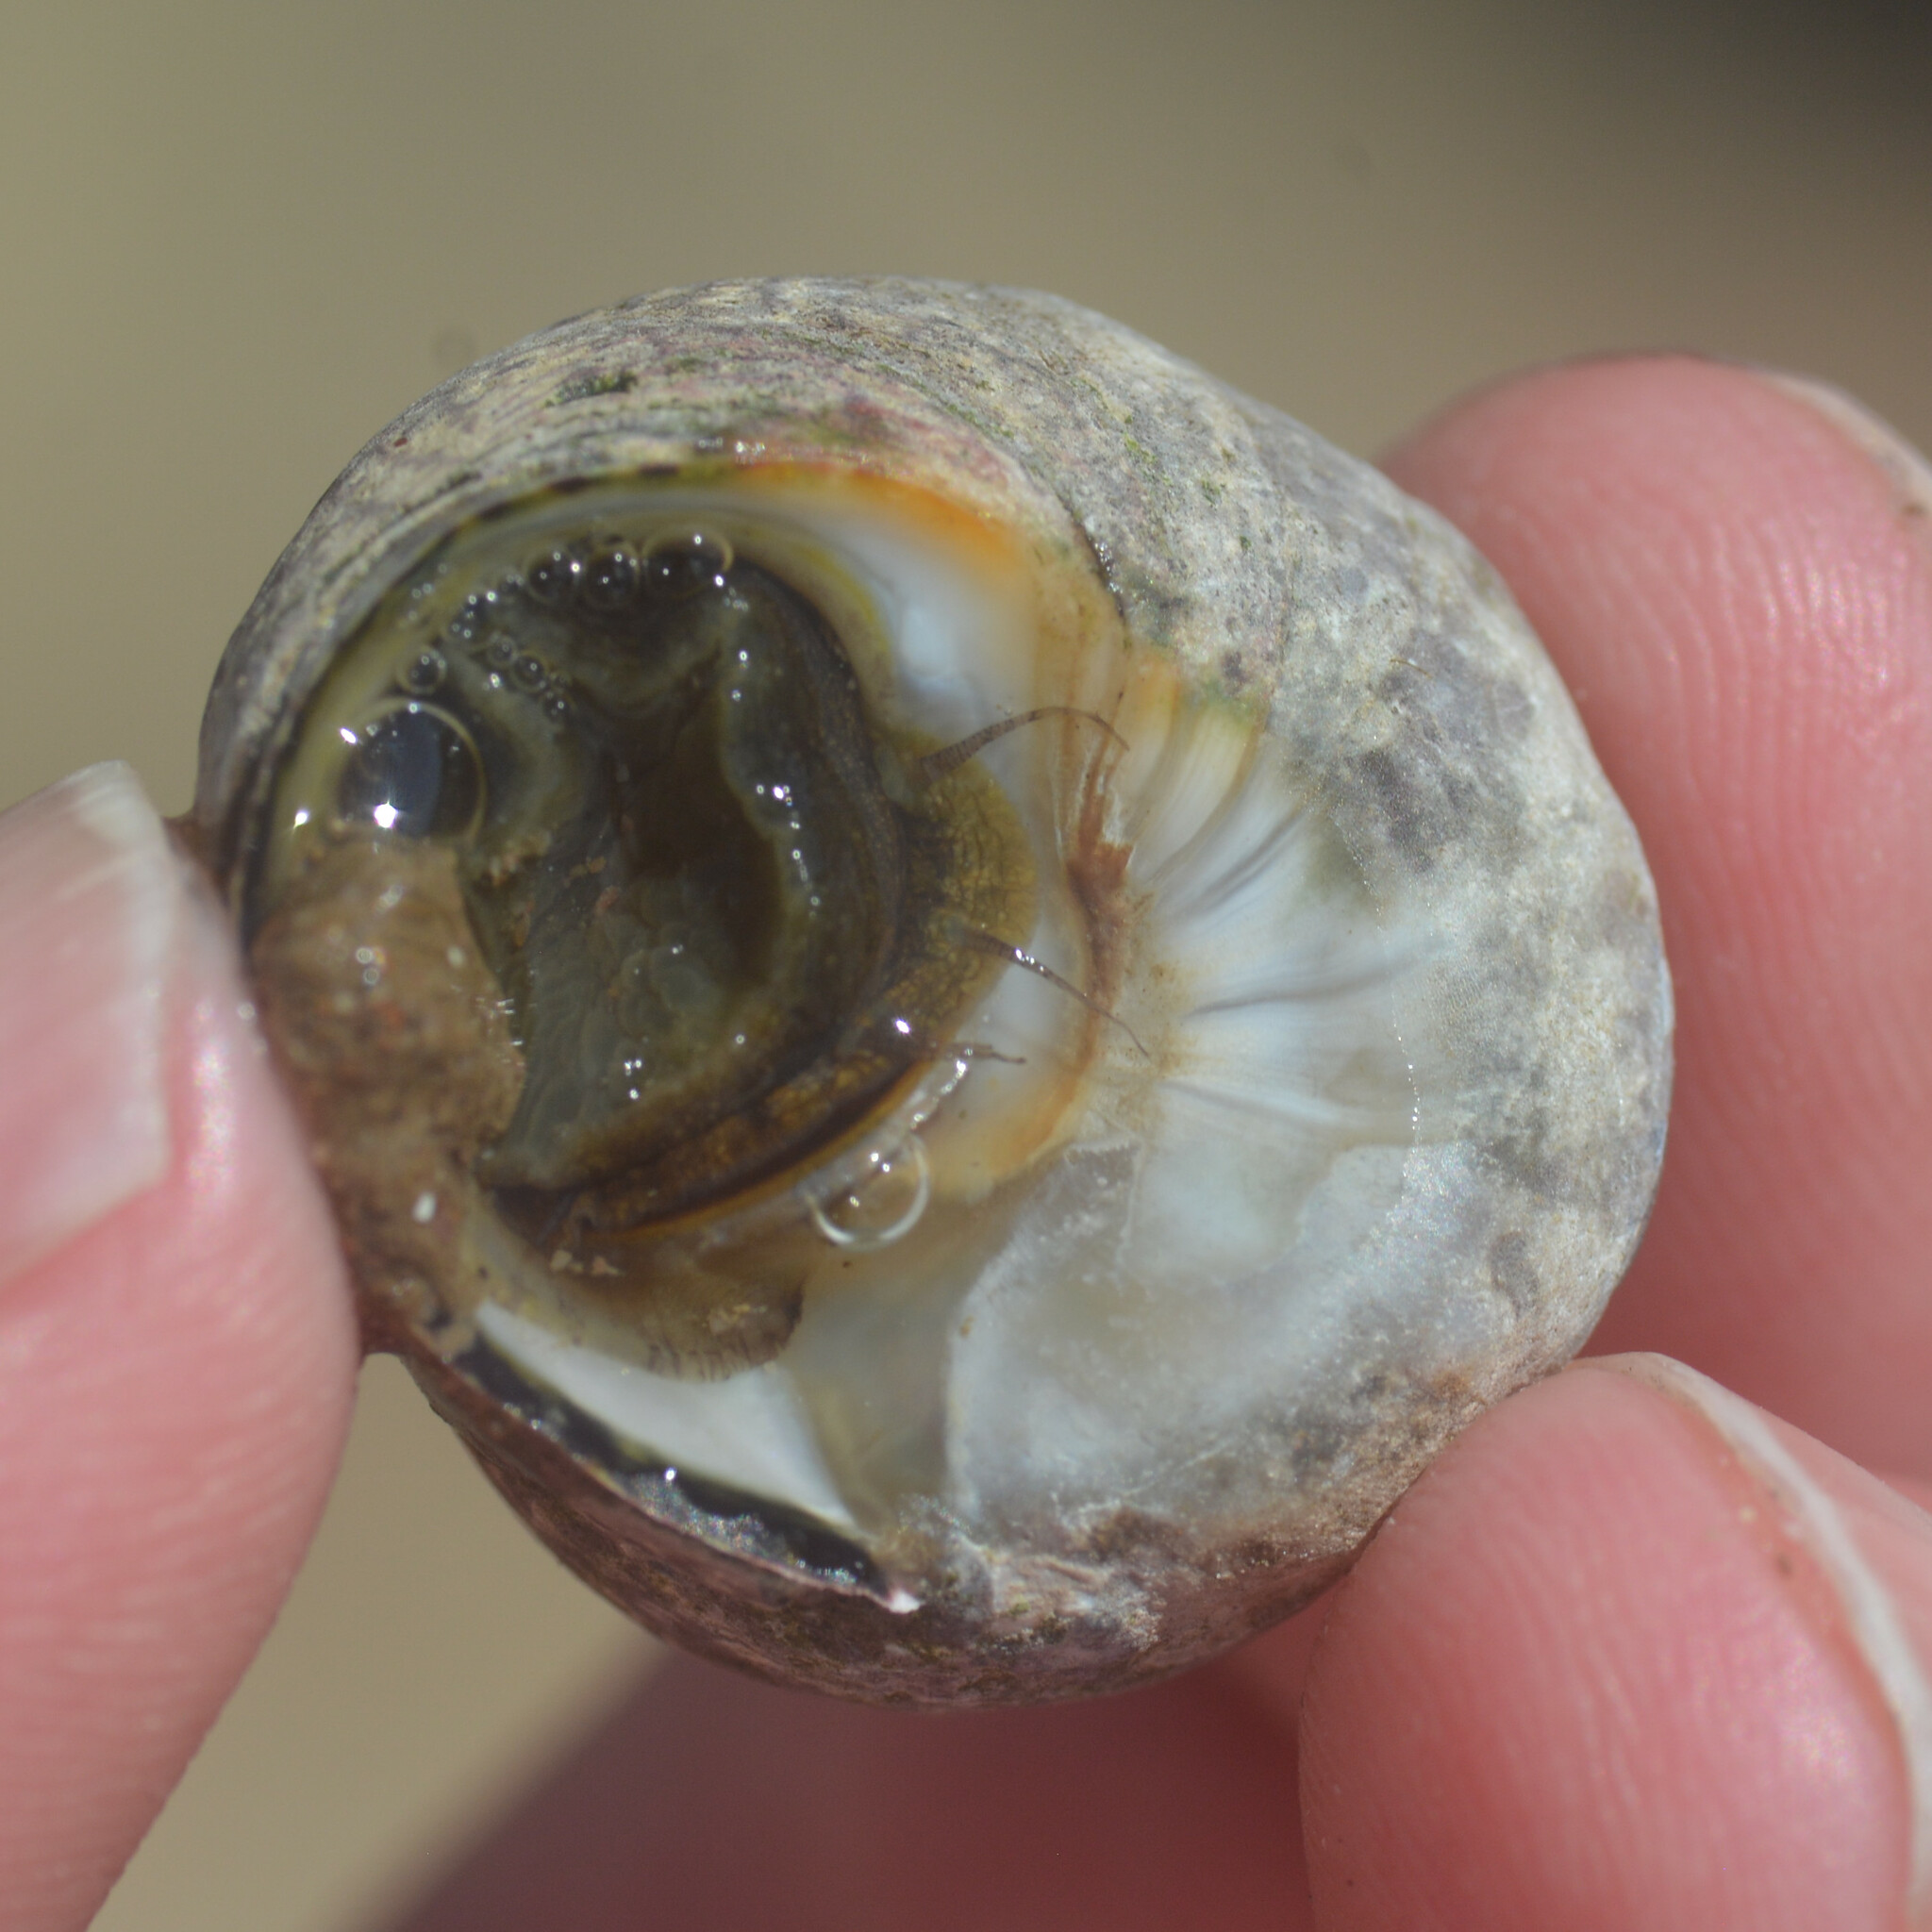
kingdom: Animalia
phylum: Mollusca
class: Gastropoda
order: Trochida
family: Trochidae
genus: Phorcus
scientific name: Phorcus lineatus
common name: Toothed top shell
